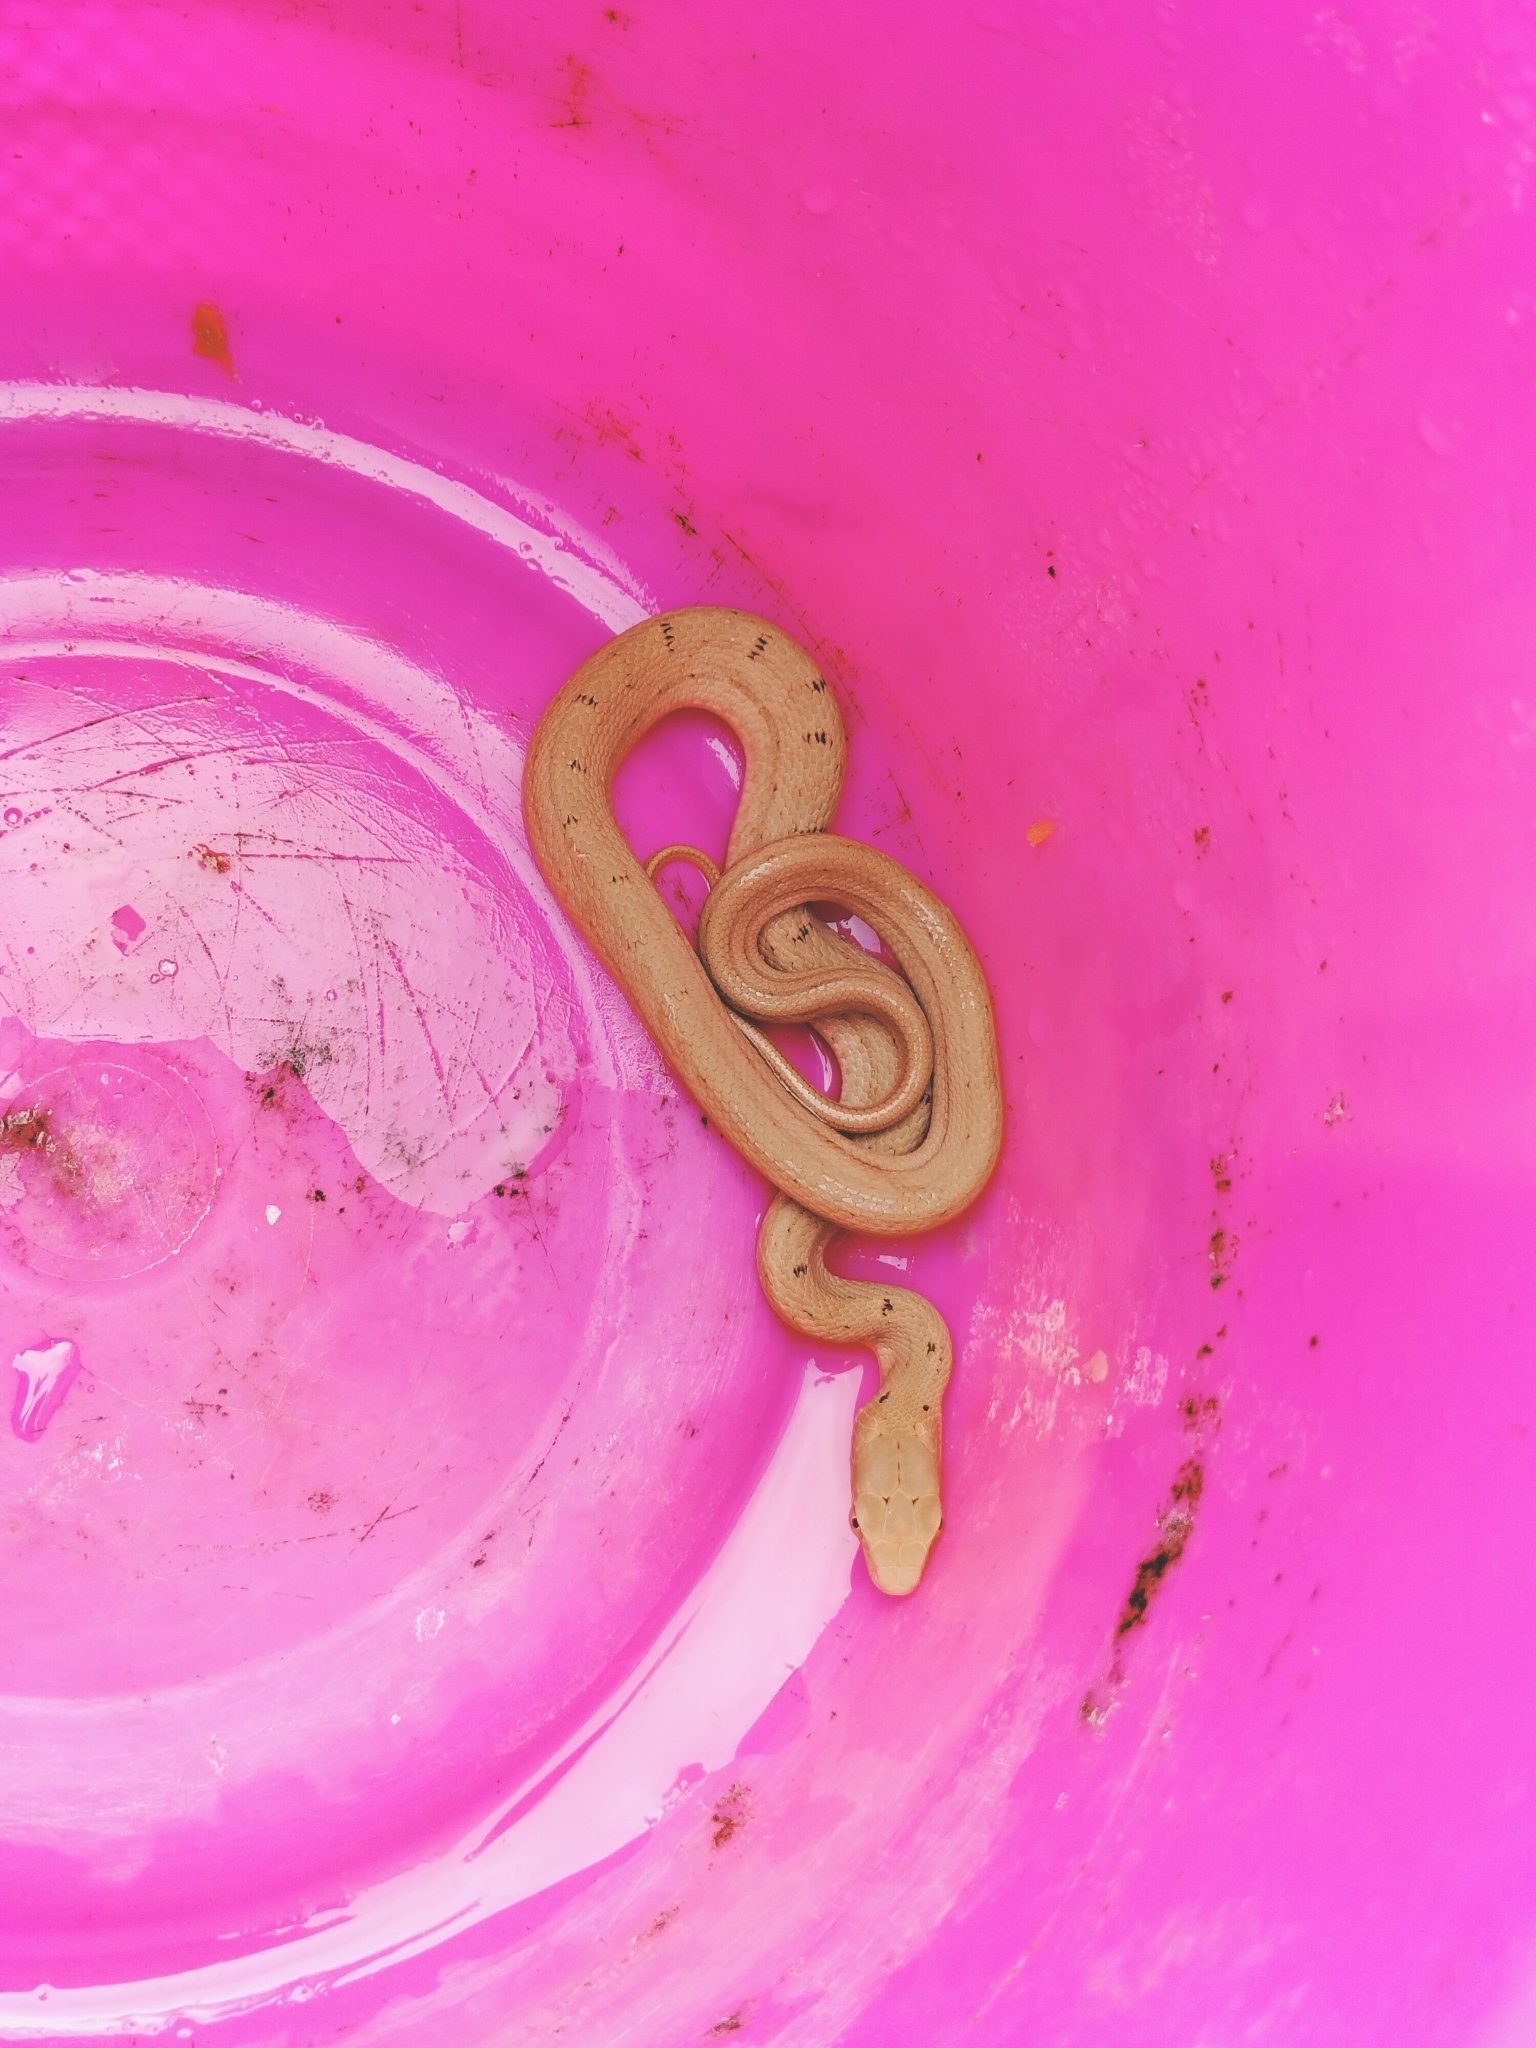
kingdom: Animalia
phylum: Chordata
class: Squamata
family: Colubridae
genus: Elaphe
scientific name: Elaphe carinata
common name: Taiwan stink snake
